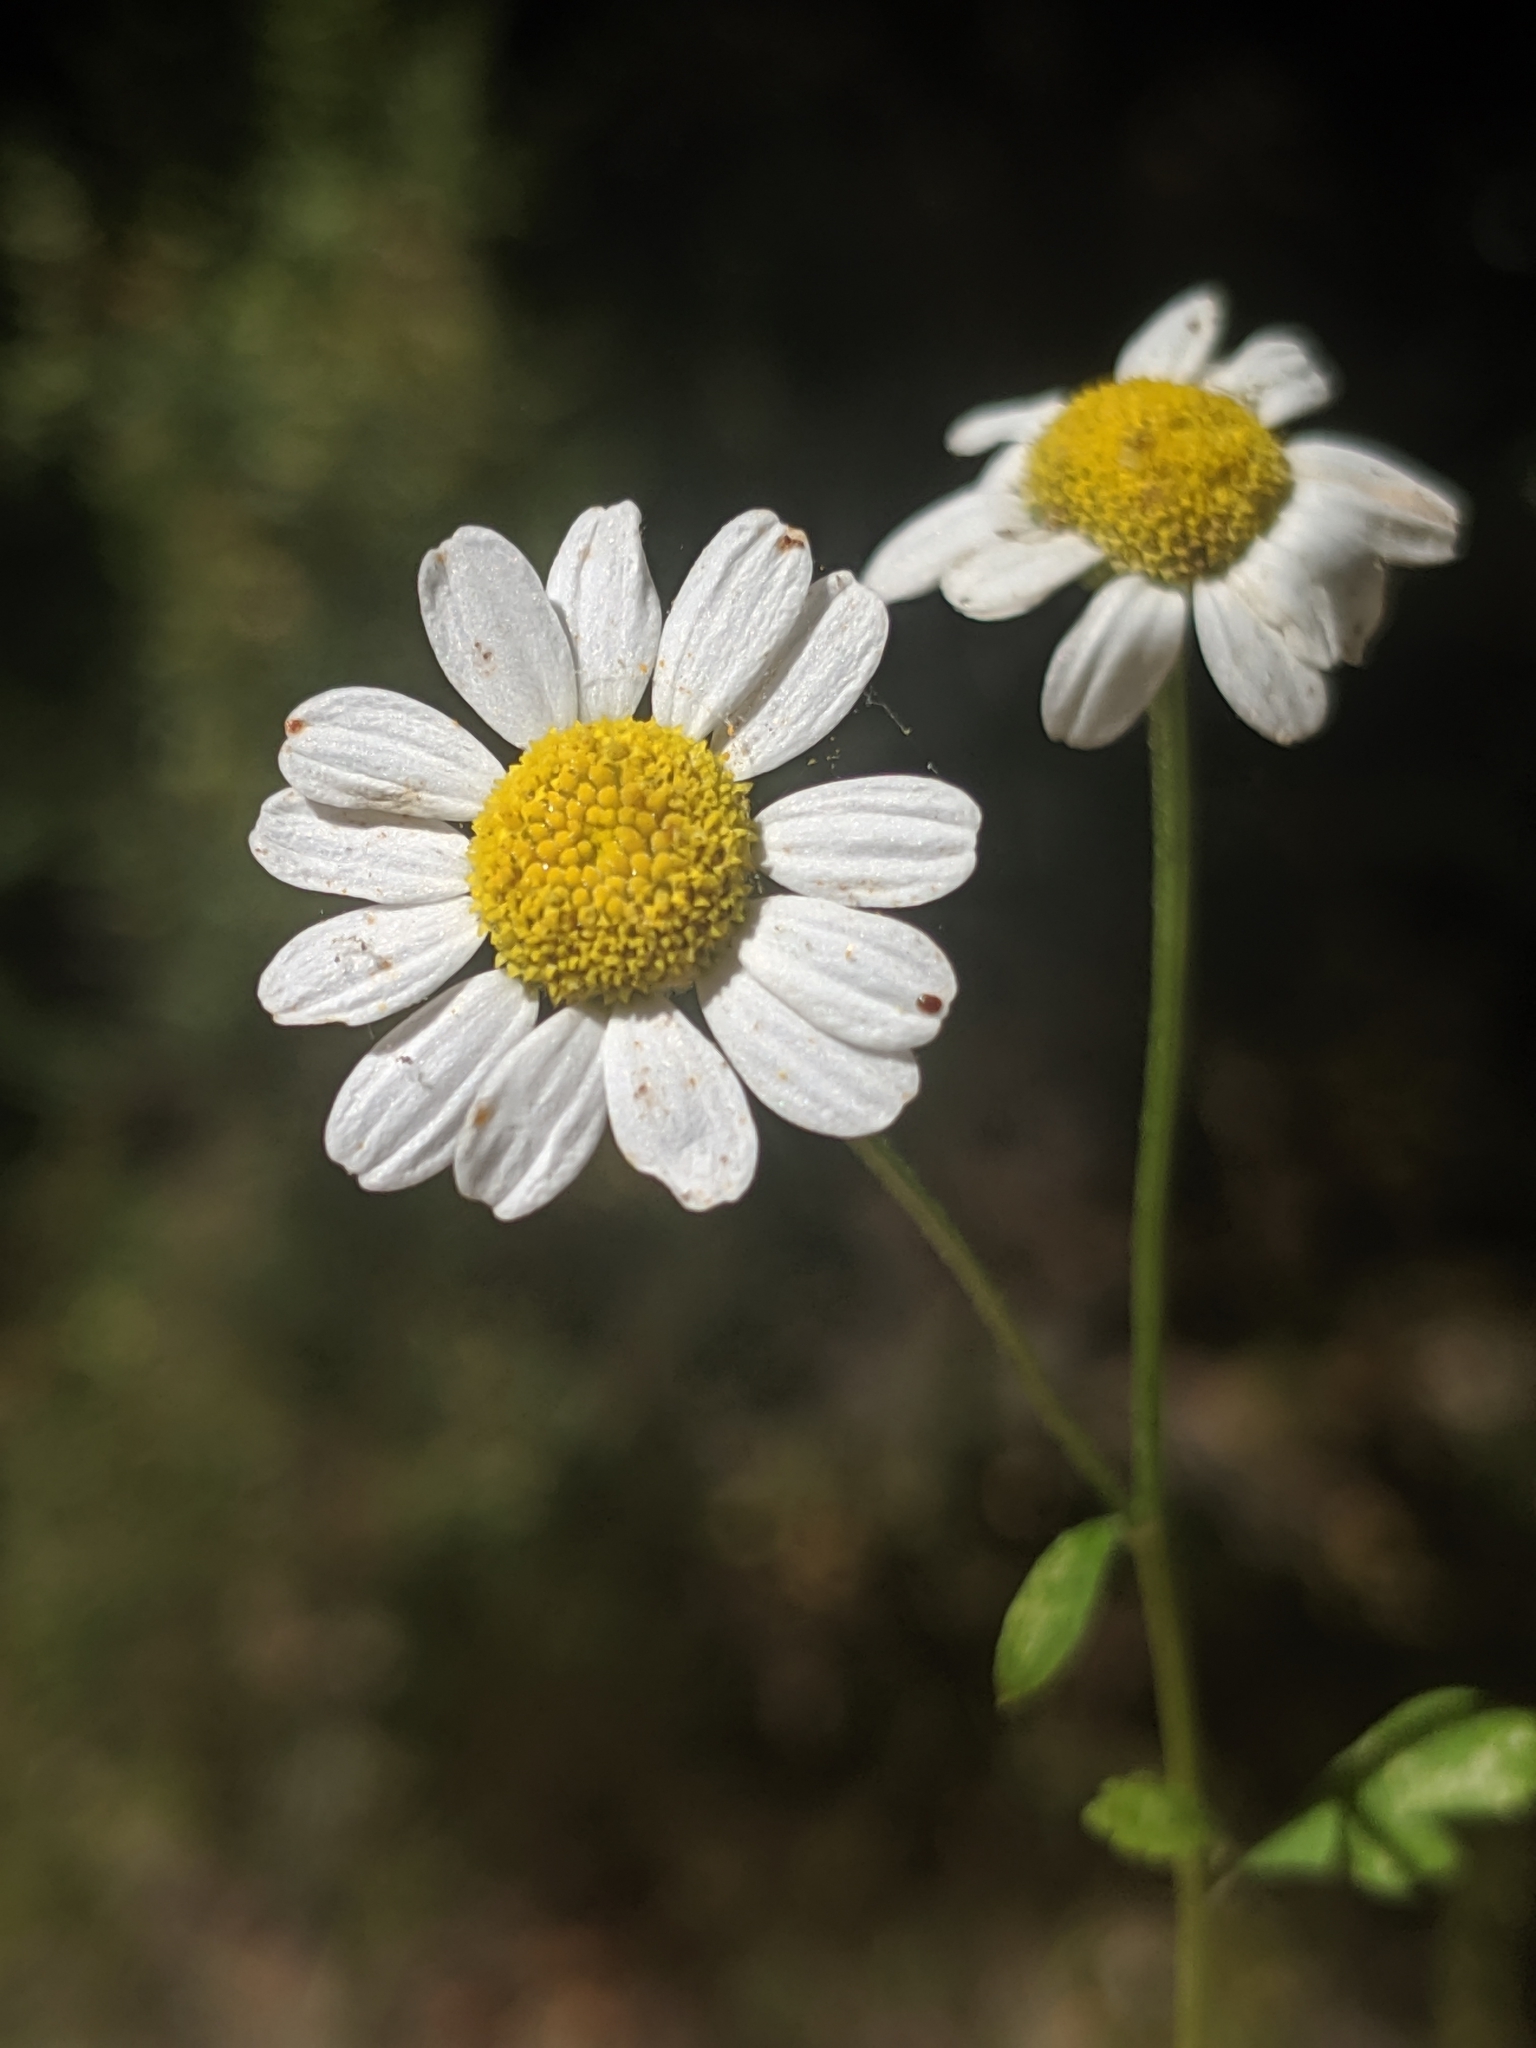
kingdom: Plantae
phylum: Tracheophyta
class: Magnoliopsida
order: Asterales
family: Asteraceae
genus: Tanacetum
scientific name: Tanacetum parthenium
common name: Feverfew
